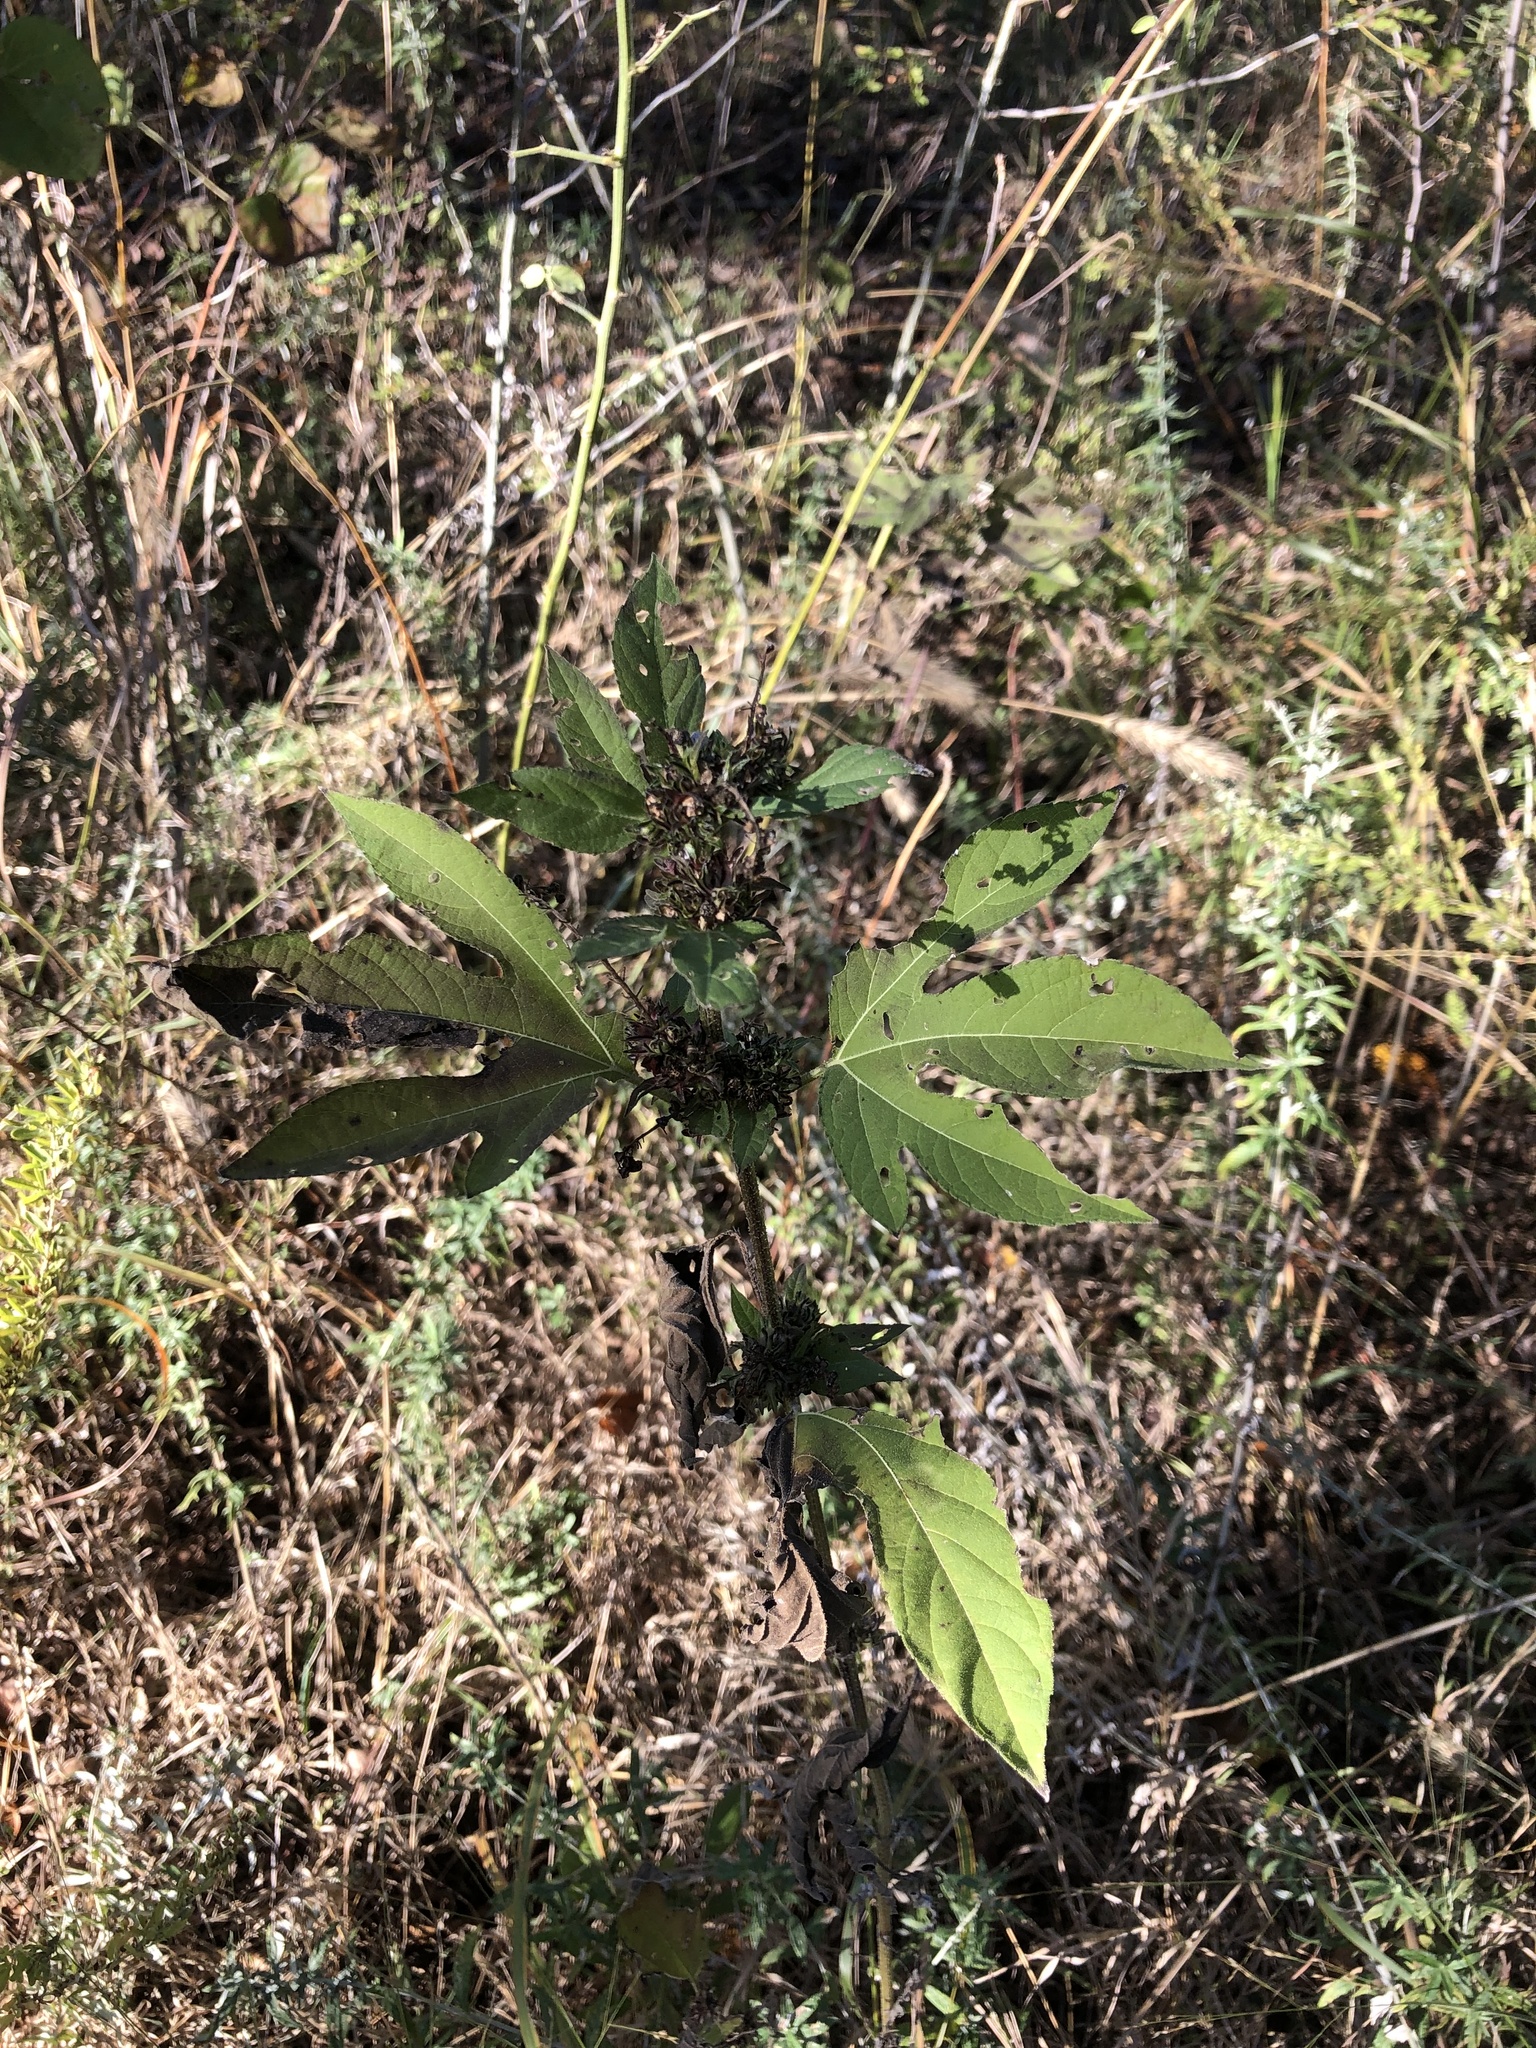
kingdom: Plantae
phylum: Tracheophyta
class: Magnoliopsida
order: Asterales
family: Asteraceae
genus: Ambrosia
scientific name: Ambrosia trifida
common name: Giant ragweed
